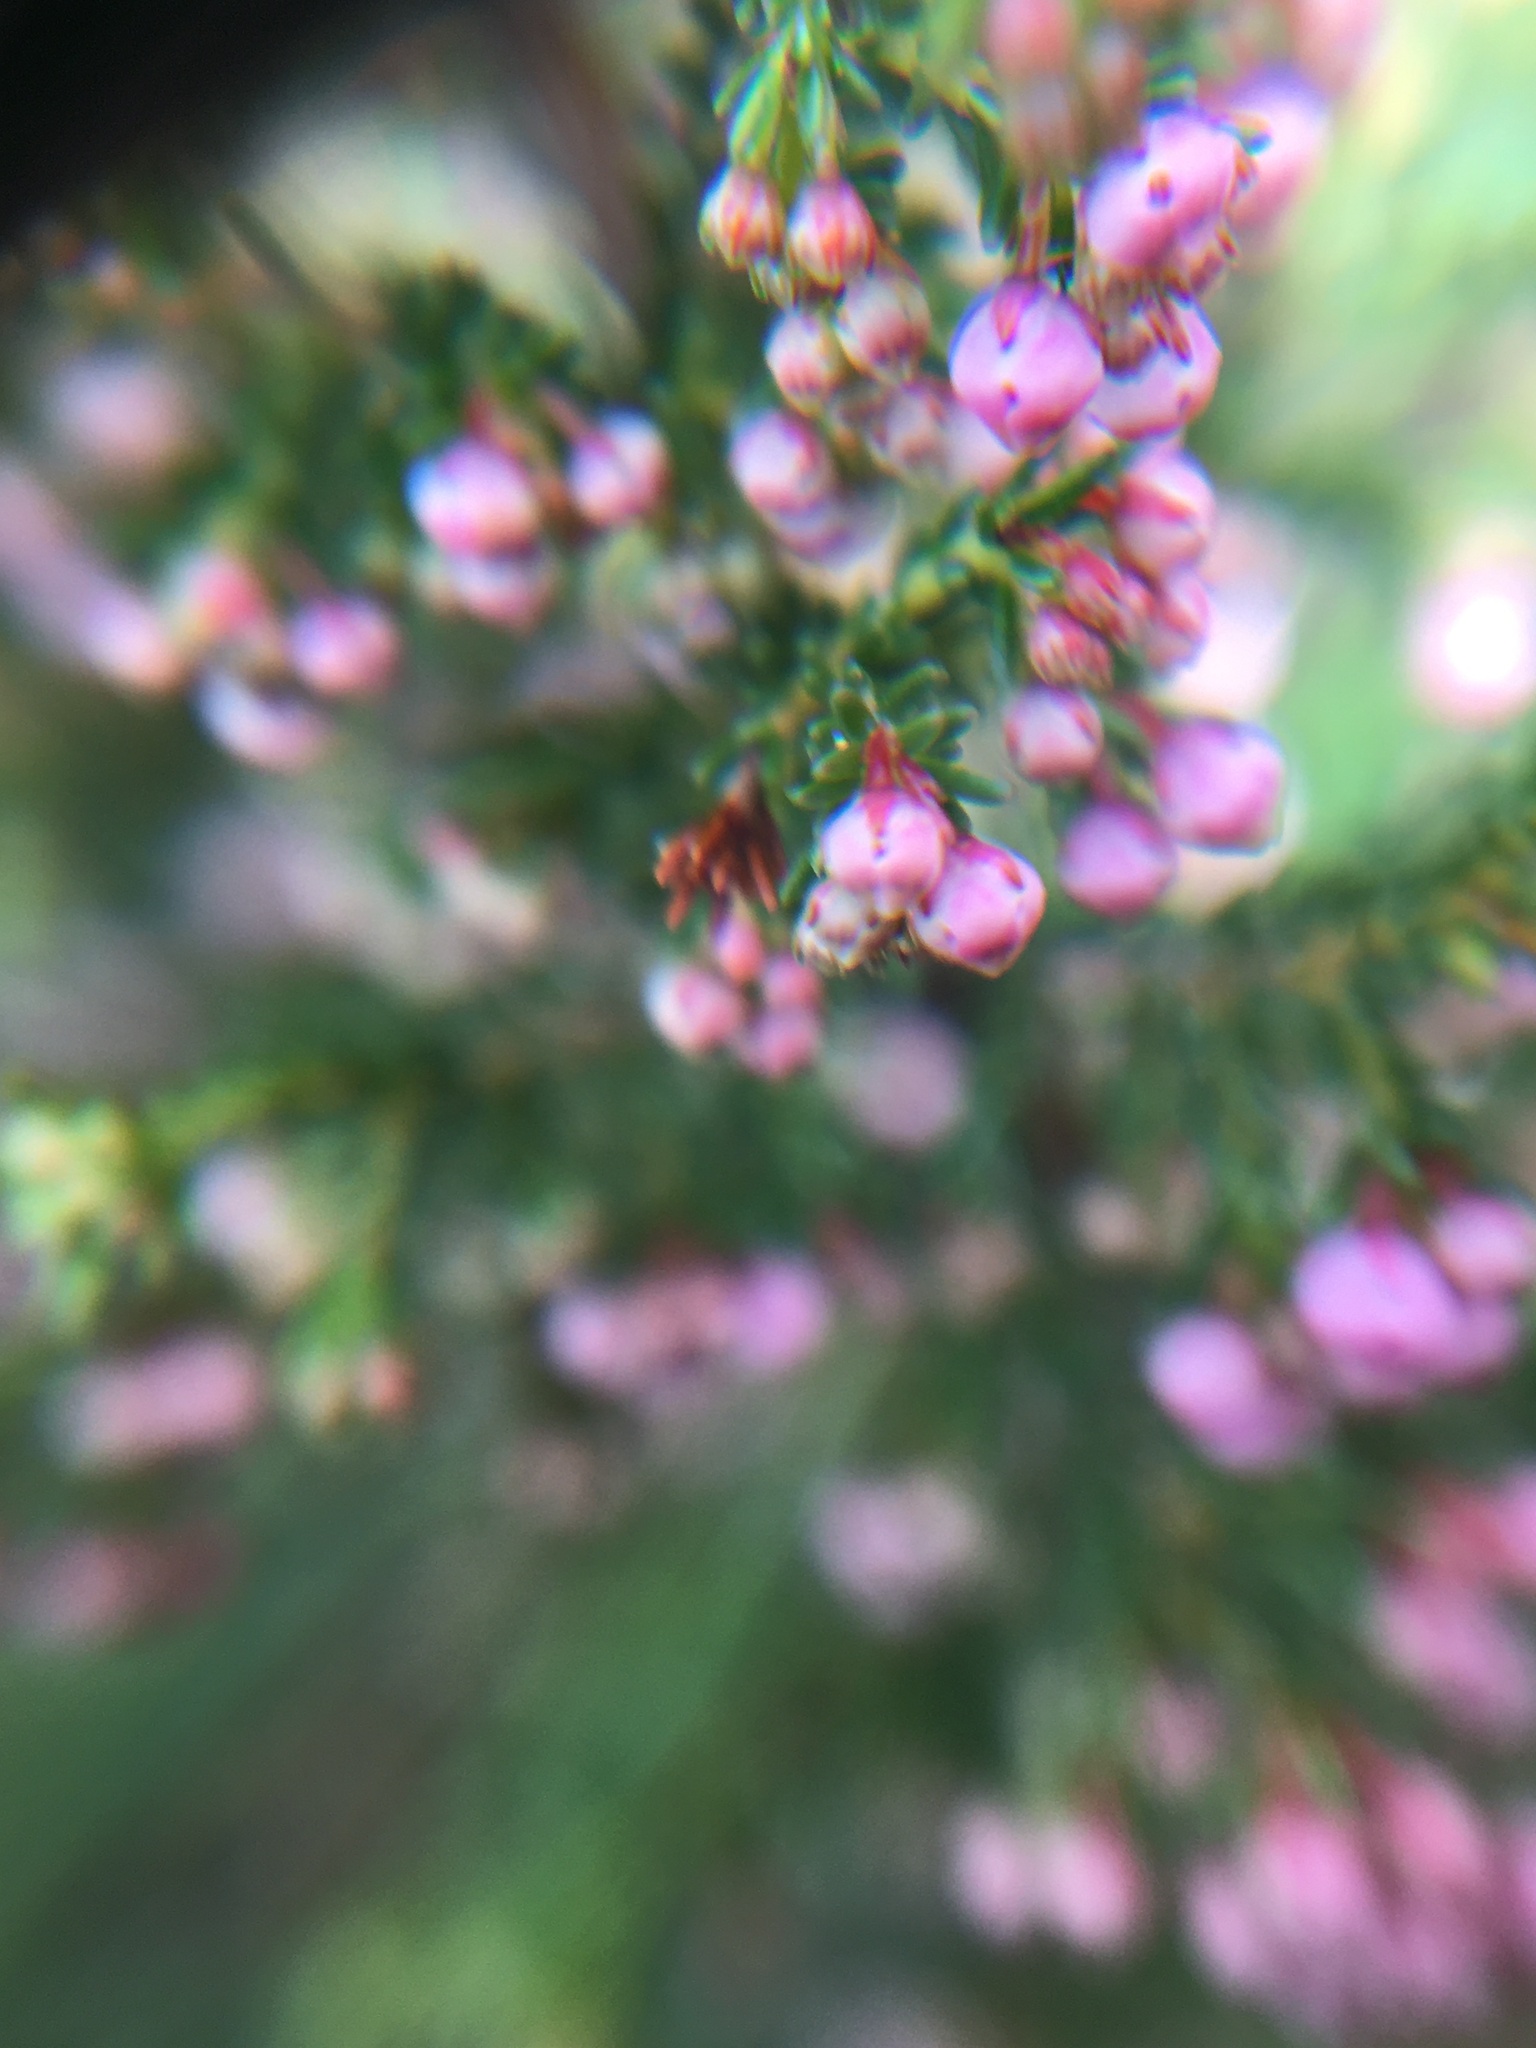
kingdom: Plantae
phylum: Tracheophyta
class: Magnoliopsida
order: Ericales
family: Ericaceae
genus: Erica
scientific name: Erica mauritanica
